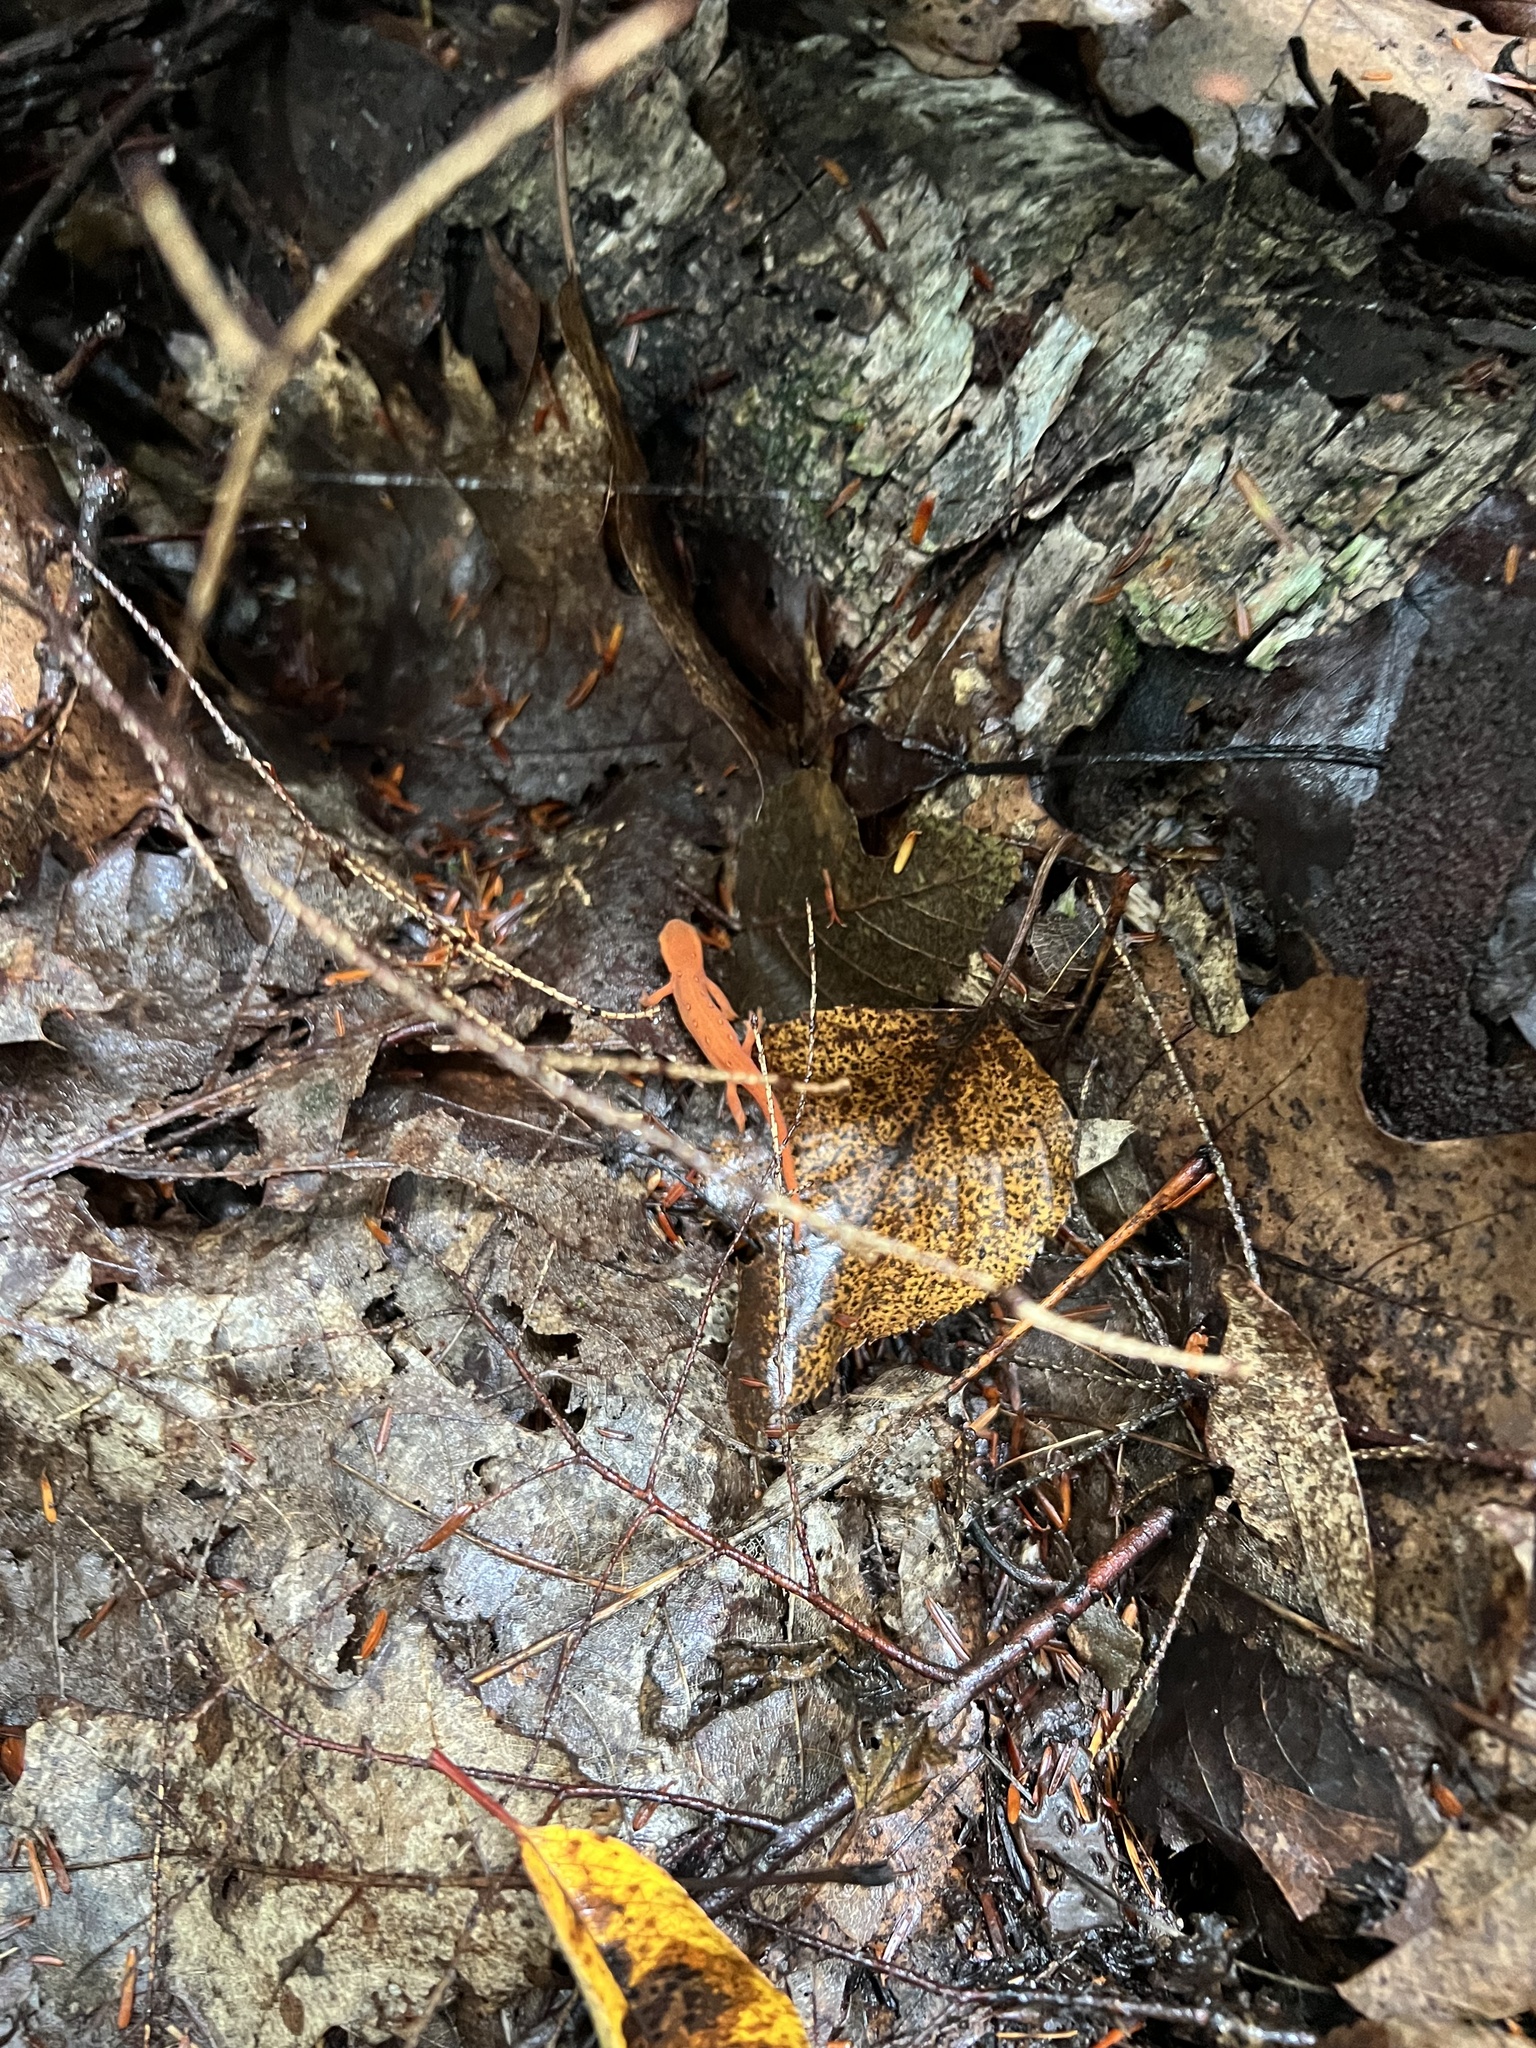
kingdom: Animalia
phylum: Chordata
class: Amphibia
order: Caudata
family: Salamandridae
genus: Notophthalmus
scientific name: Notophthalmus viridescens
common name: Eastern newt
